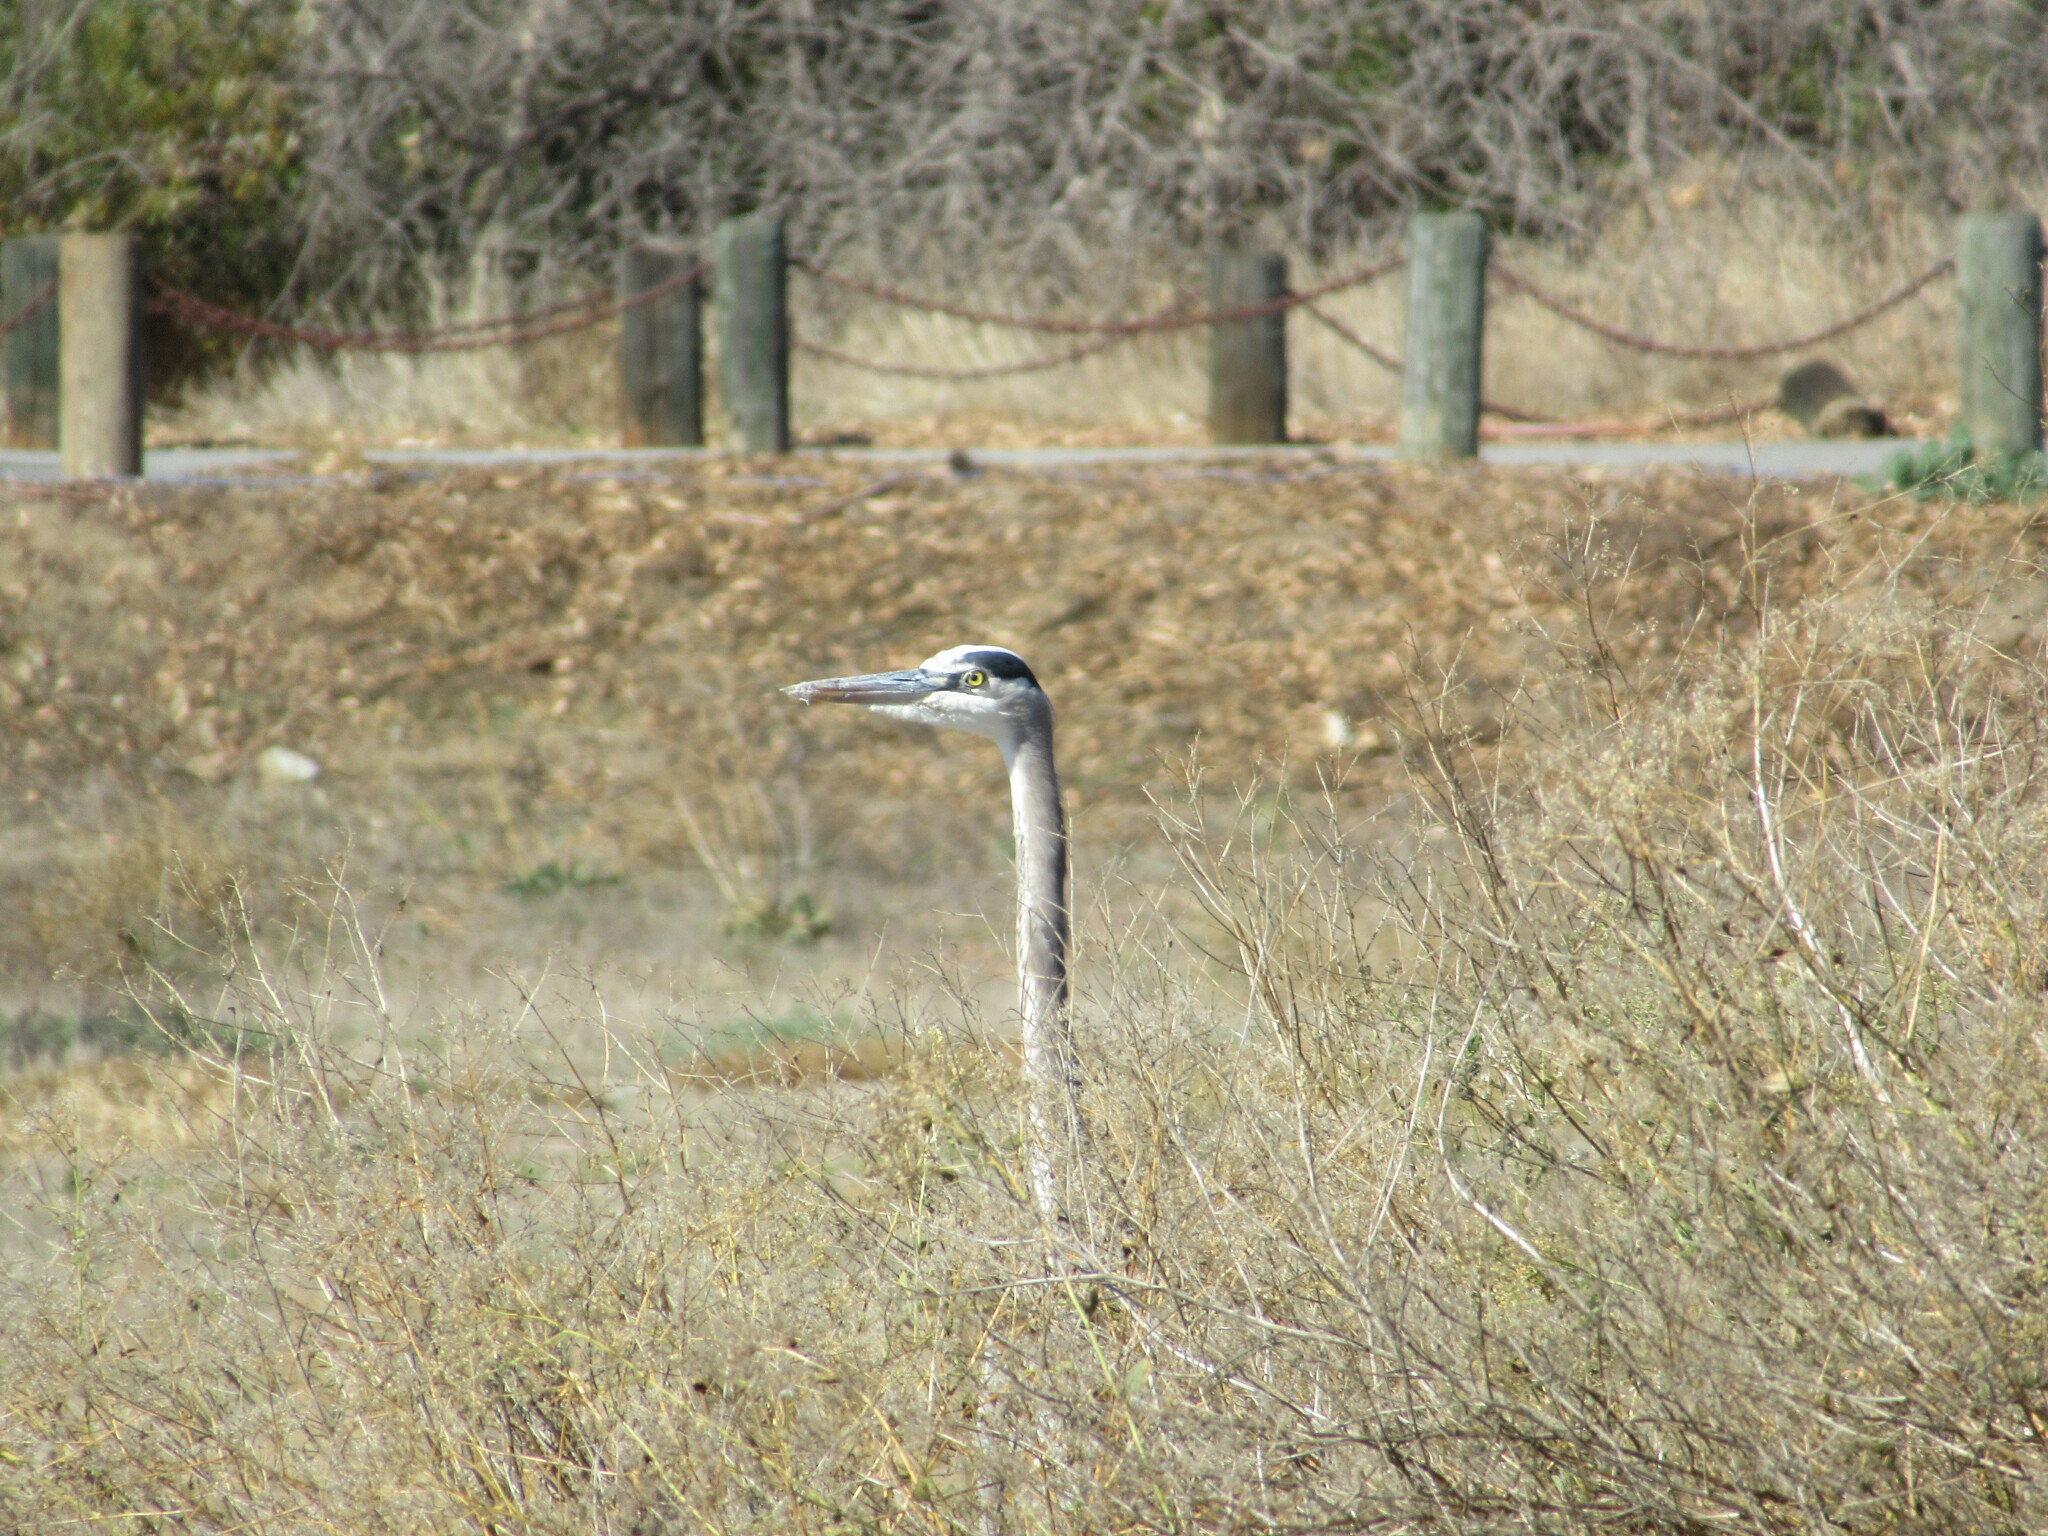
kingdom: Animalia
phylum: Chordata
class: Aves
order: Pelecaniformes
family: Ardeidae
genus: Ardea
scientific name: Ardea herodias
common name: Great blue heron
